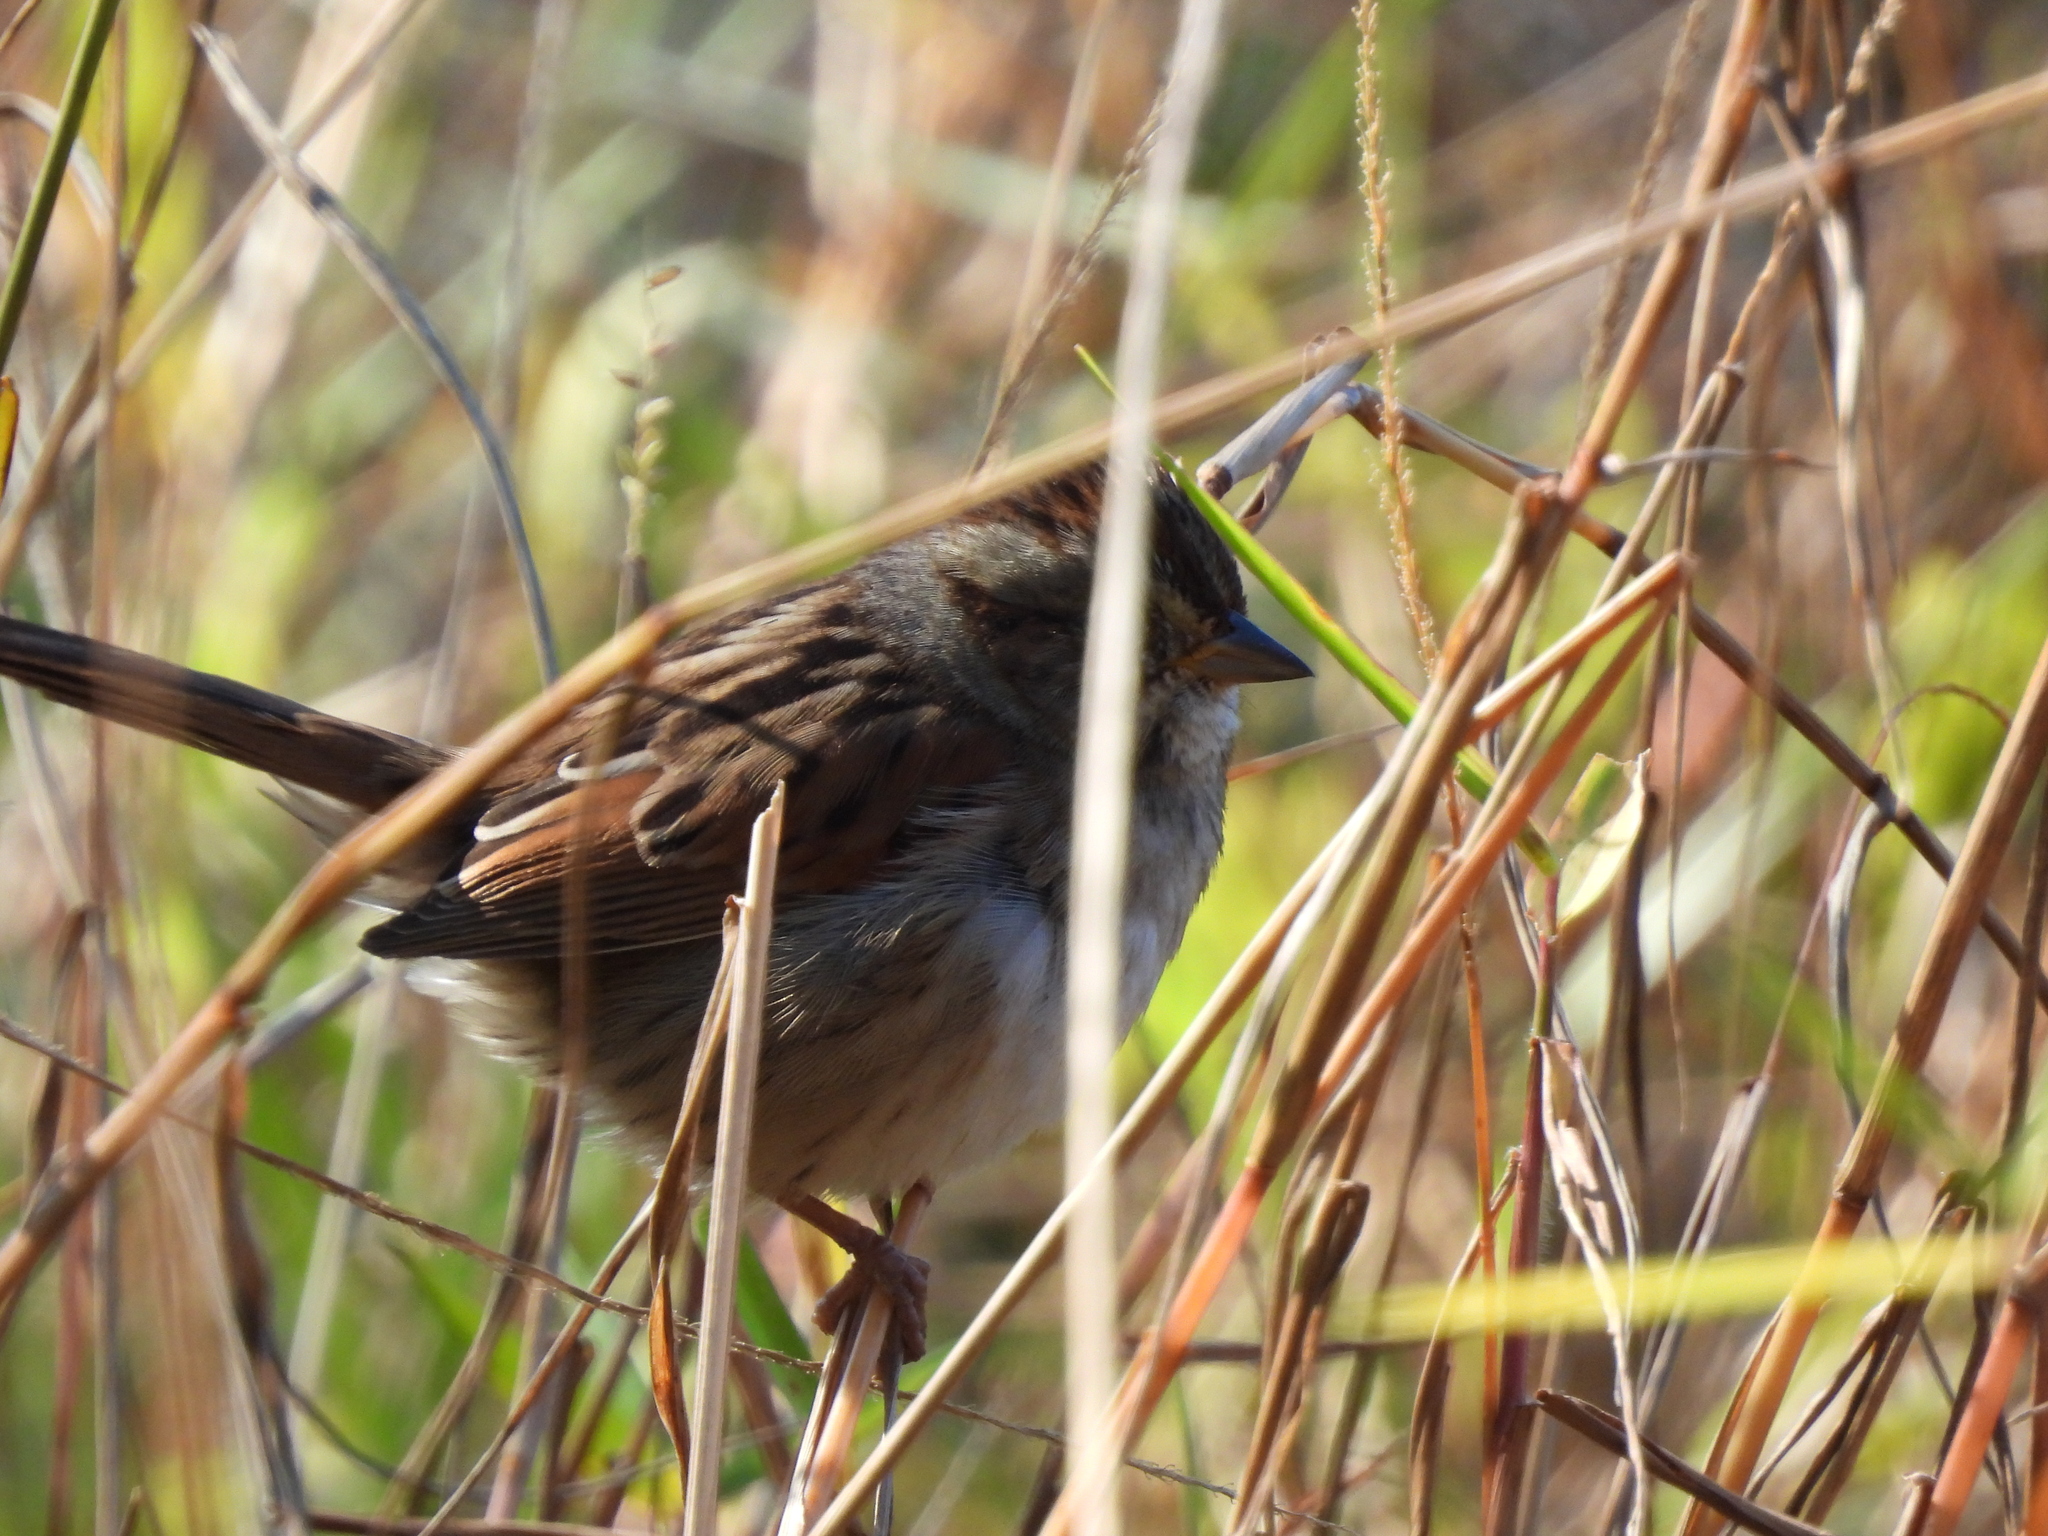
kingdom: Animalia
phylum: Chordata
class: Aves
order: Passeriformes
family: Passerellidae
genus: Melospiza
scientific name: Melospiza georgiana
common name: Swamp sparrow
